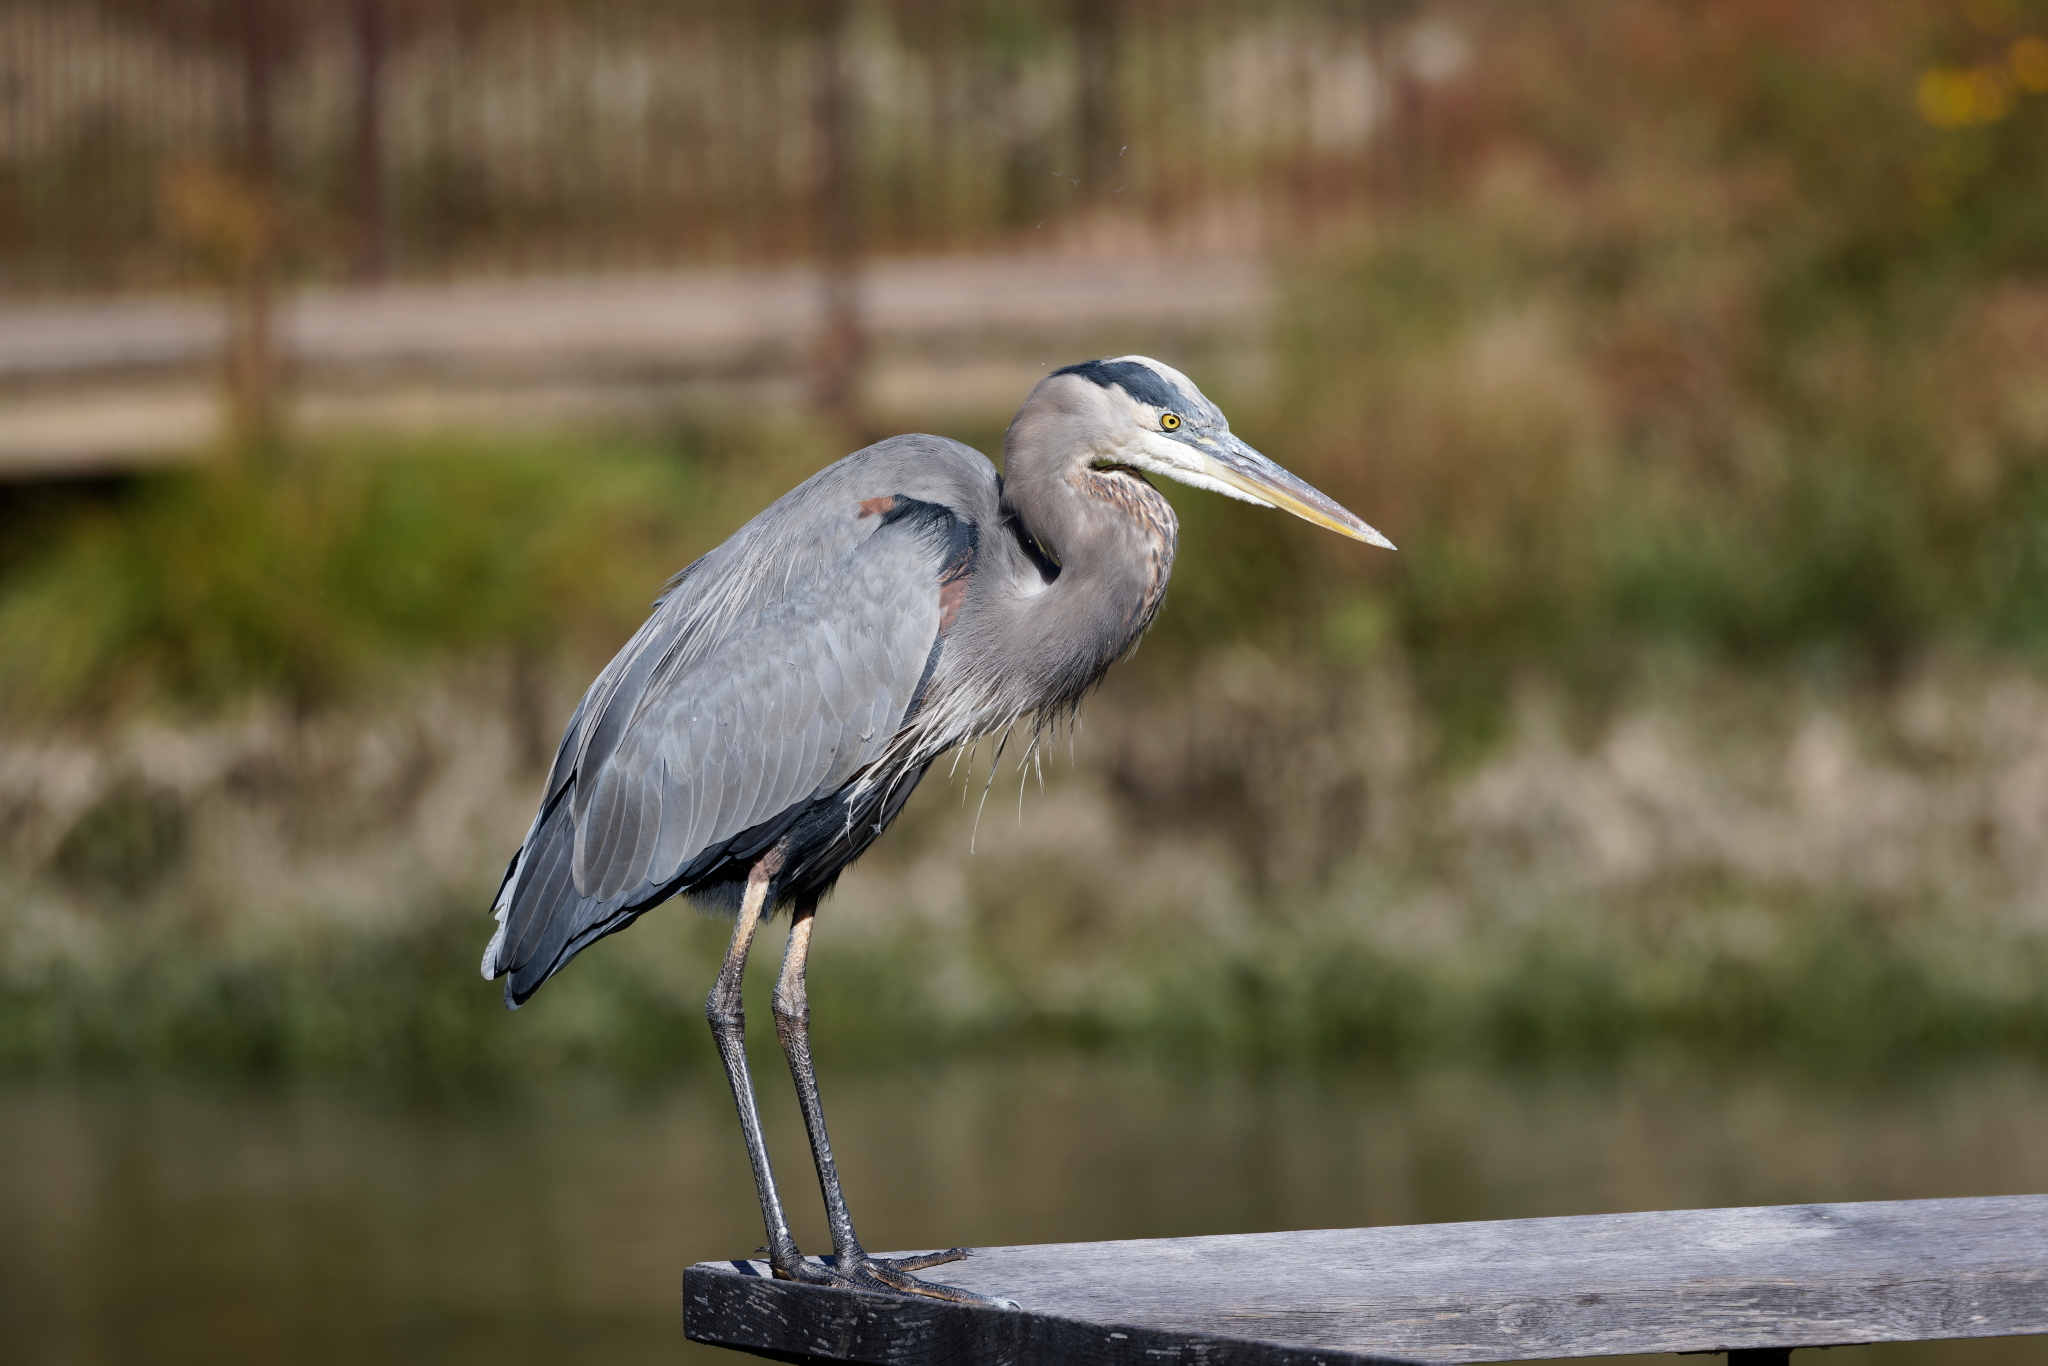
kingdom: Animalia
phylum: Chordata
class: Aves
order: Pelecaniformes
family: Ardeidae
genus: Ardea
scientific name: Ardea herodias
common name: Great blue heron
